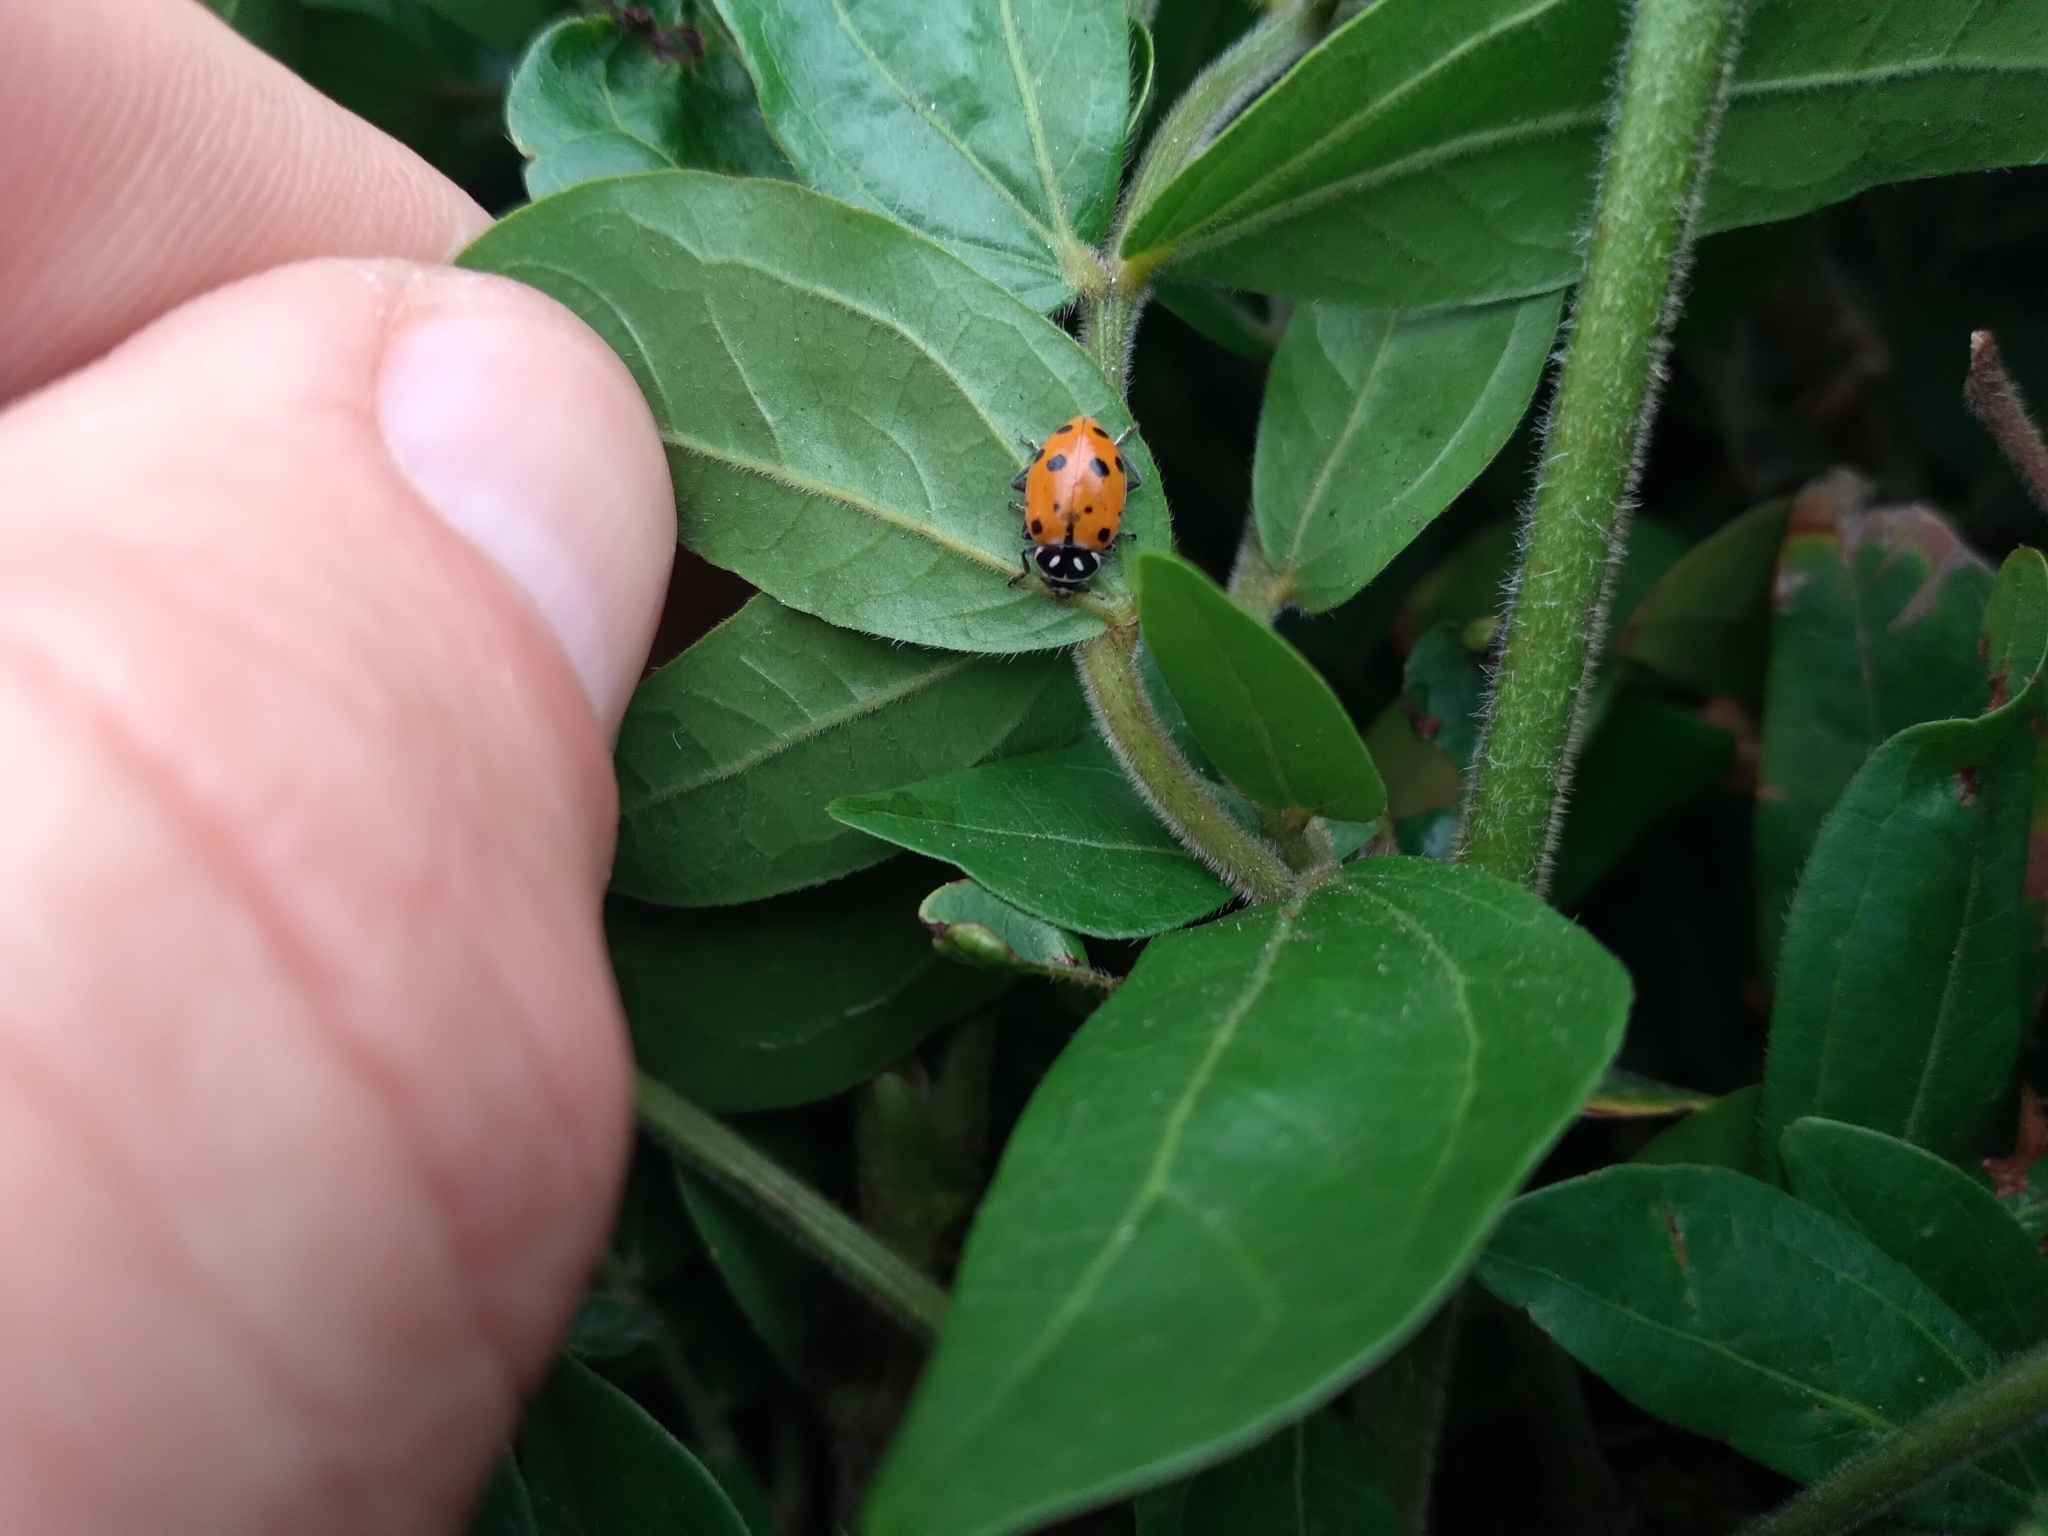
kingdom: Animalia
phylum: Arthropoda
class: Insecta
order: Coleoptera
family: Coccinellidae
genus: Hippodamia
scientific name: Hippodamia convergens
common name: Convergent lady beetle
